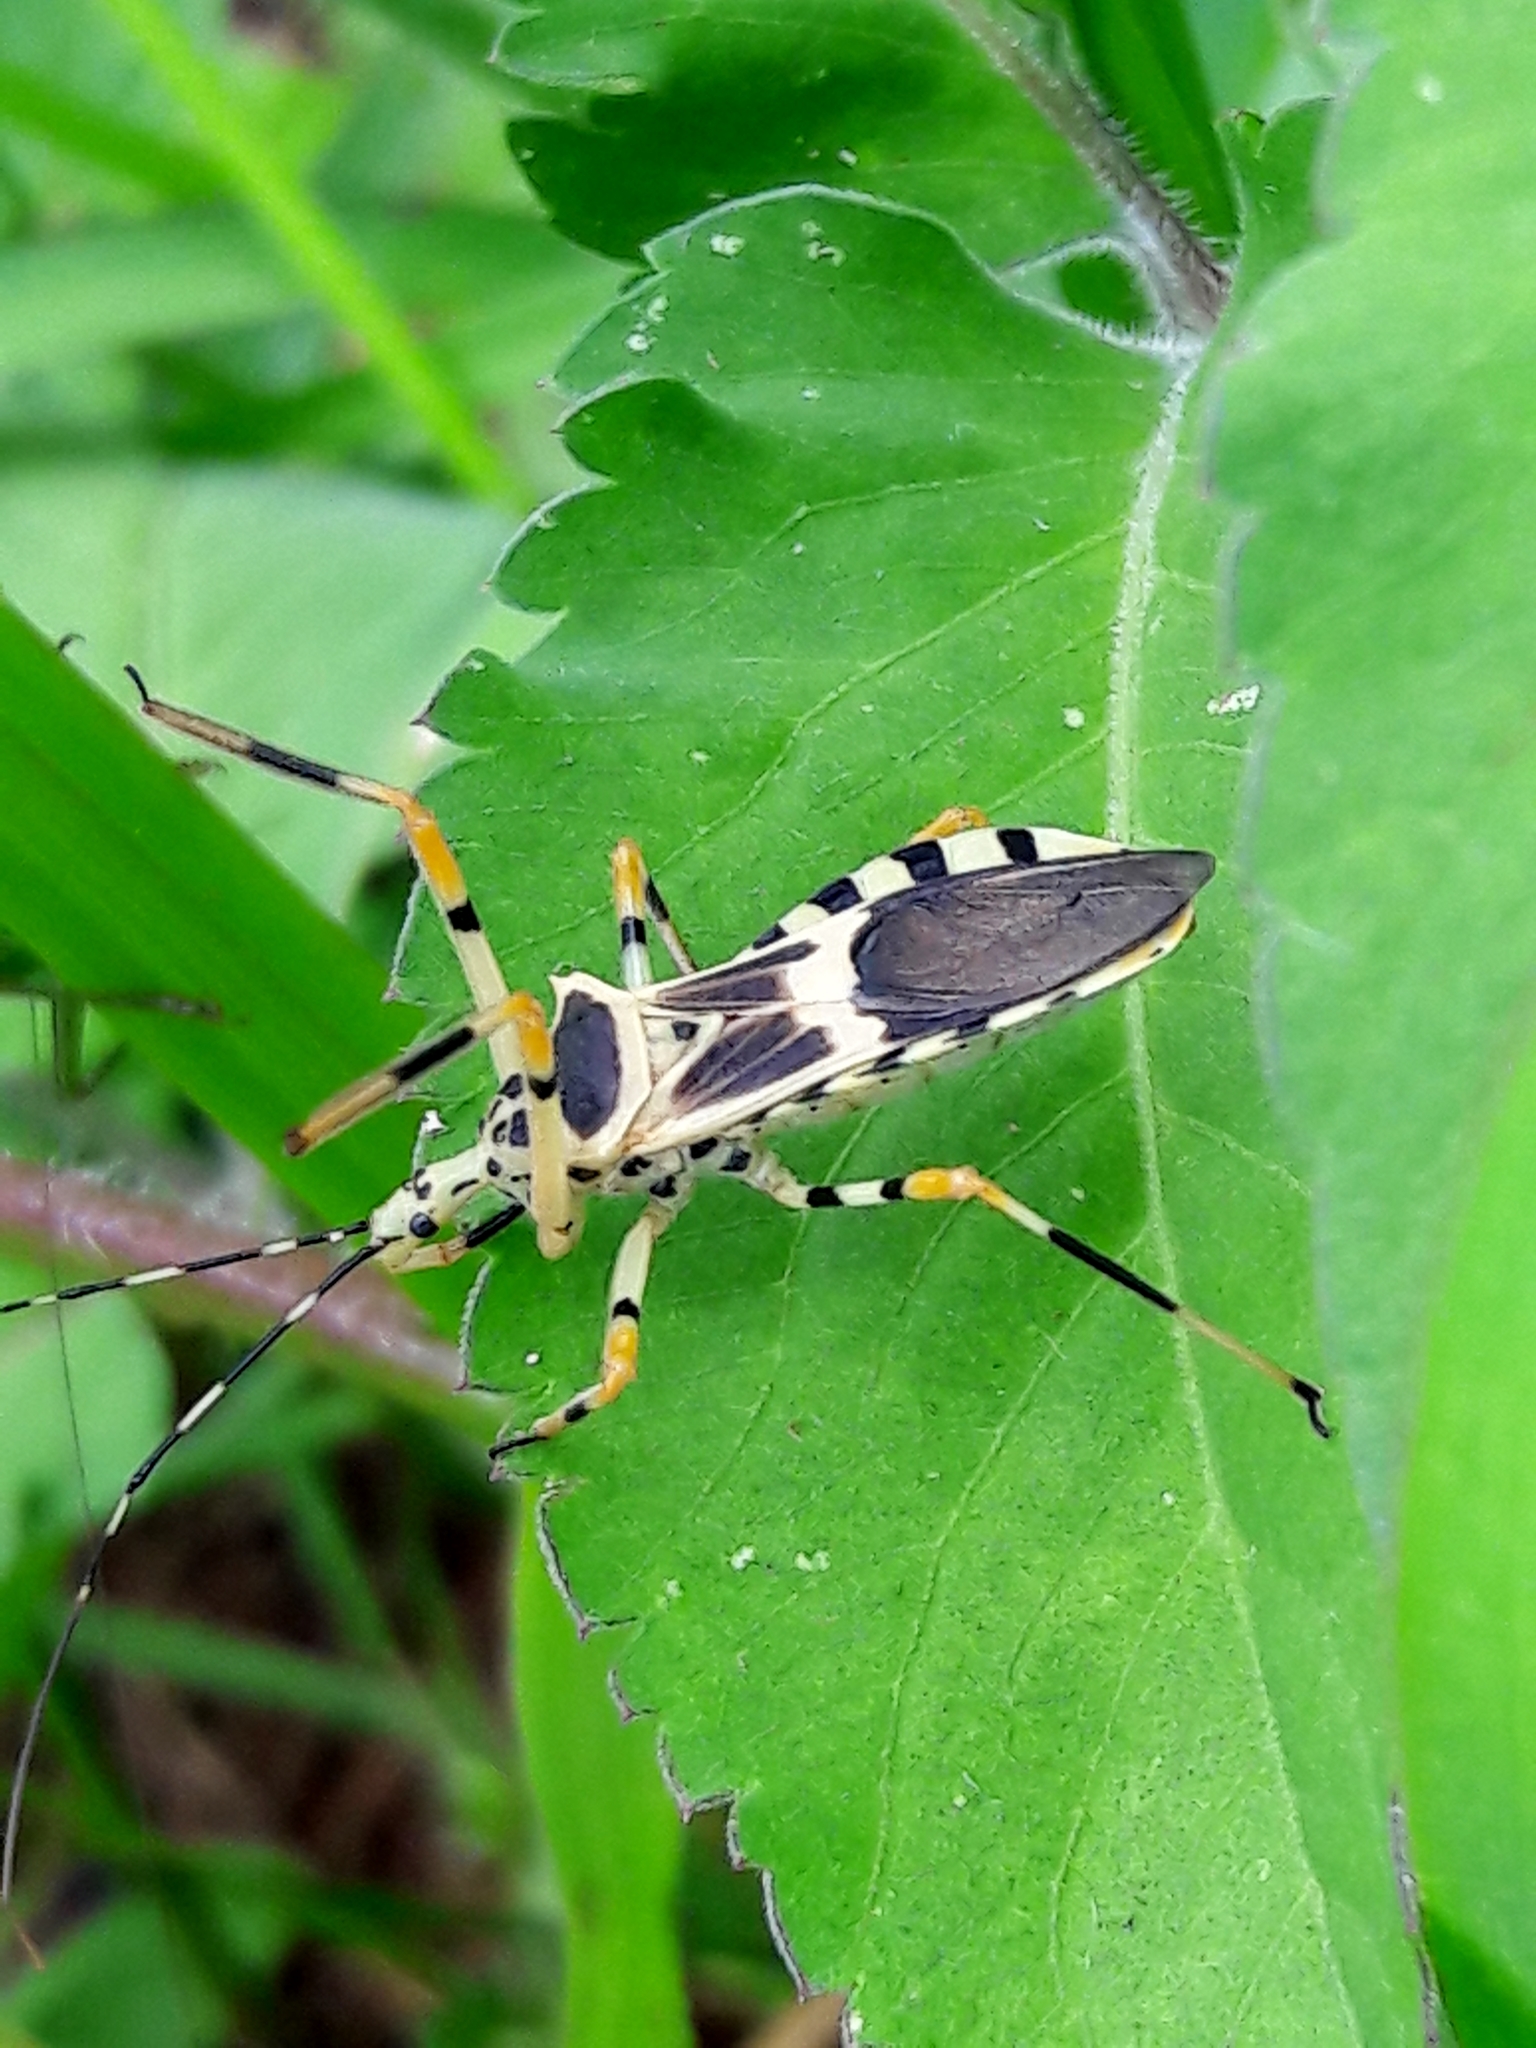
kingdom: Animalia
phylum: Arthropoda
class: Insecta
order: Hemiptera
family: Reduviidae
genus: Zelus
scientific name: Zelus armillatus
